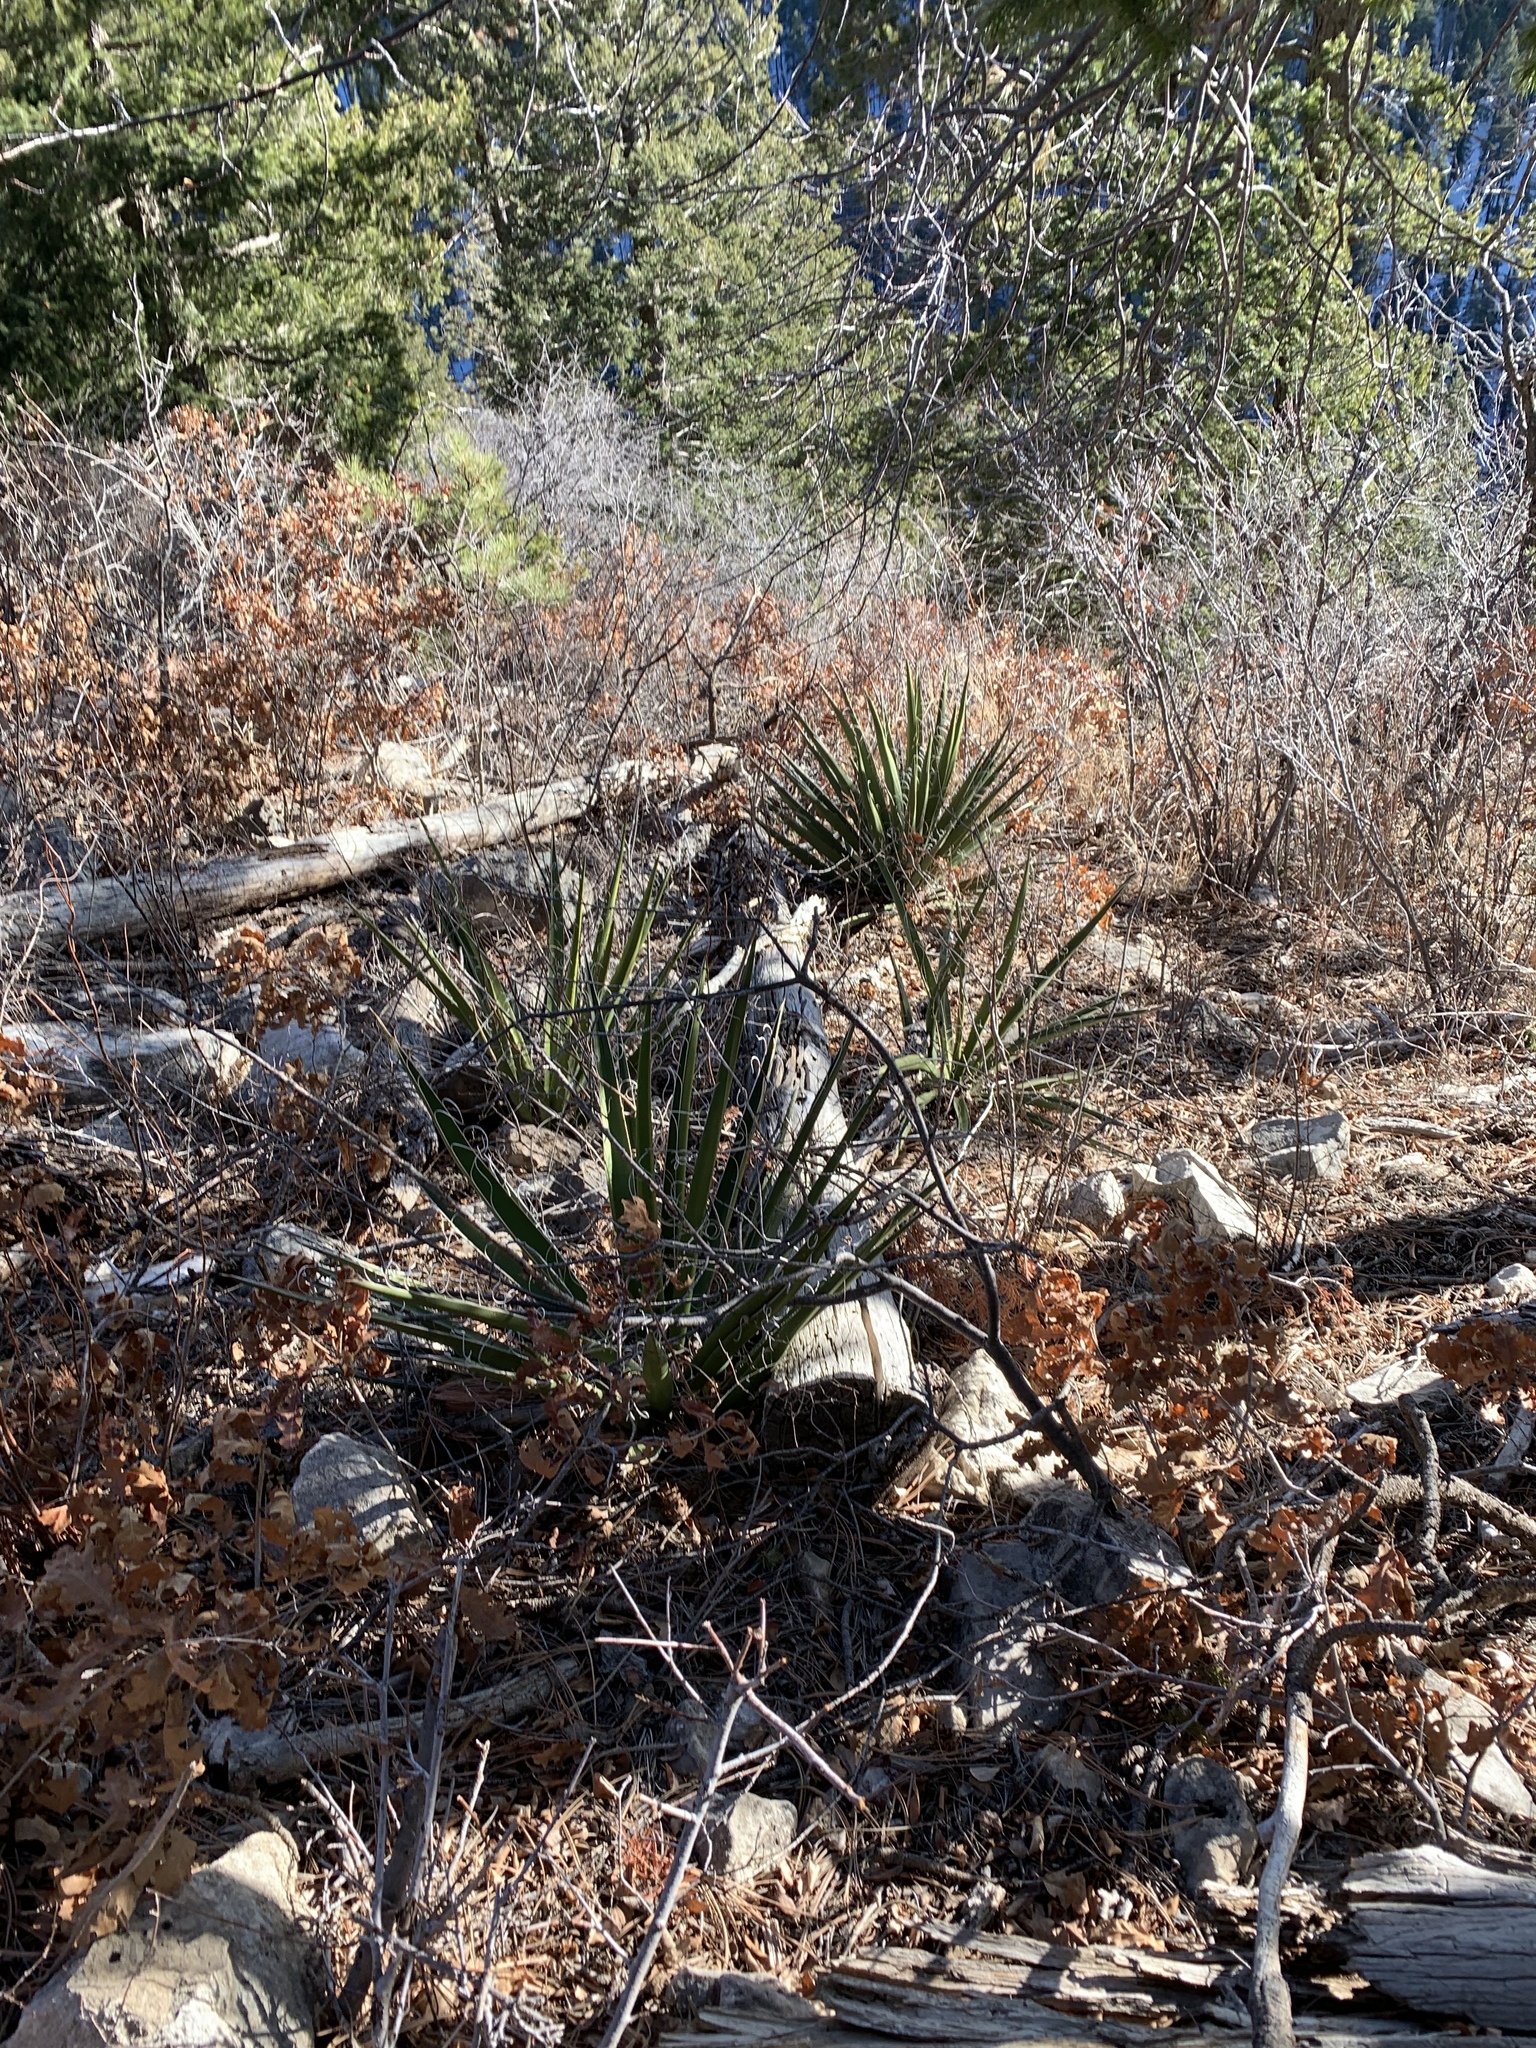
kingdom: Plantae
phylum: Tracheophyta
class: Liliopsida
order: Asparagales
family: Asparagaceae
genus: Yucca
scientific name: Yucca baccata
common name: Banana yucca
